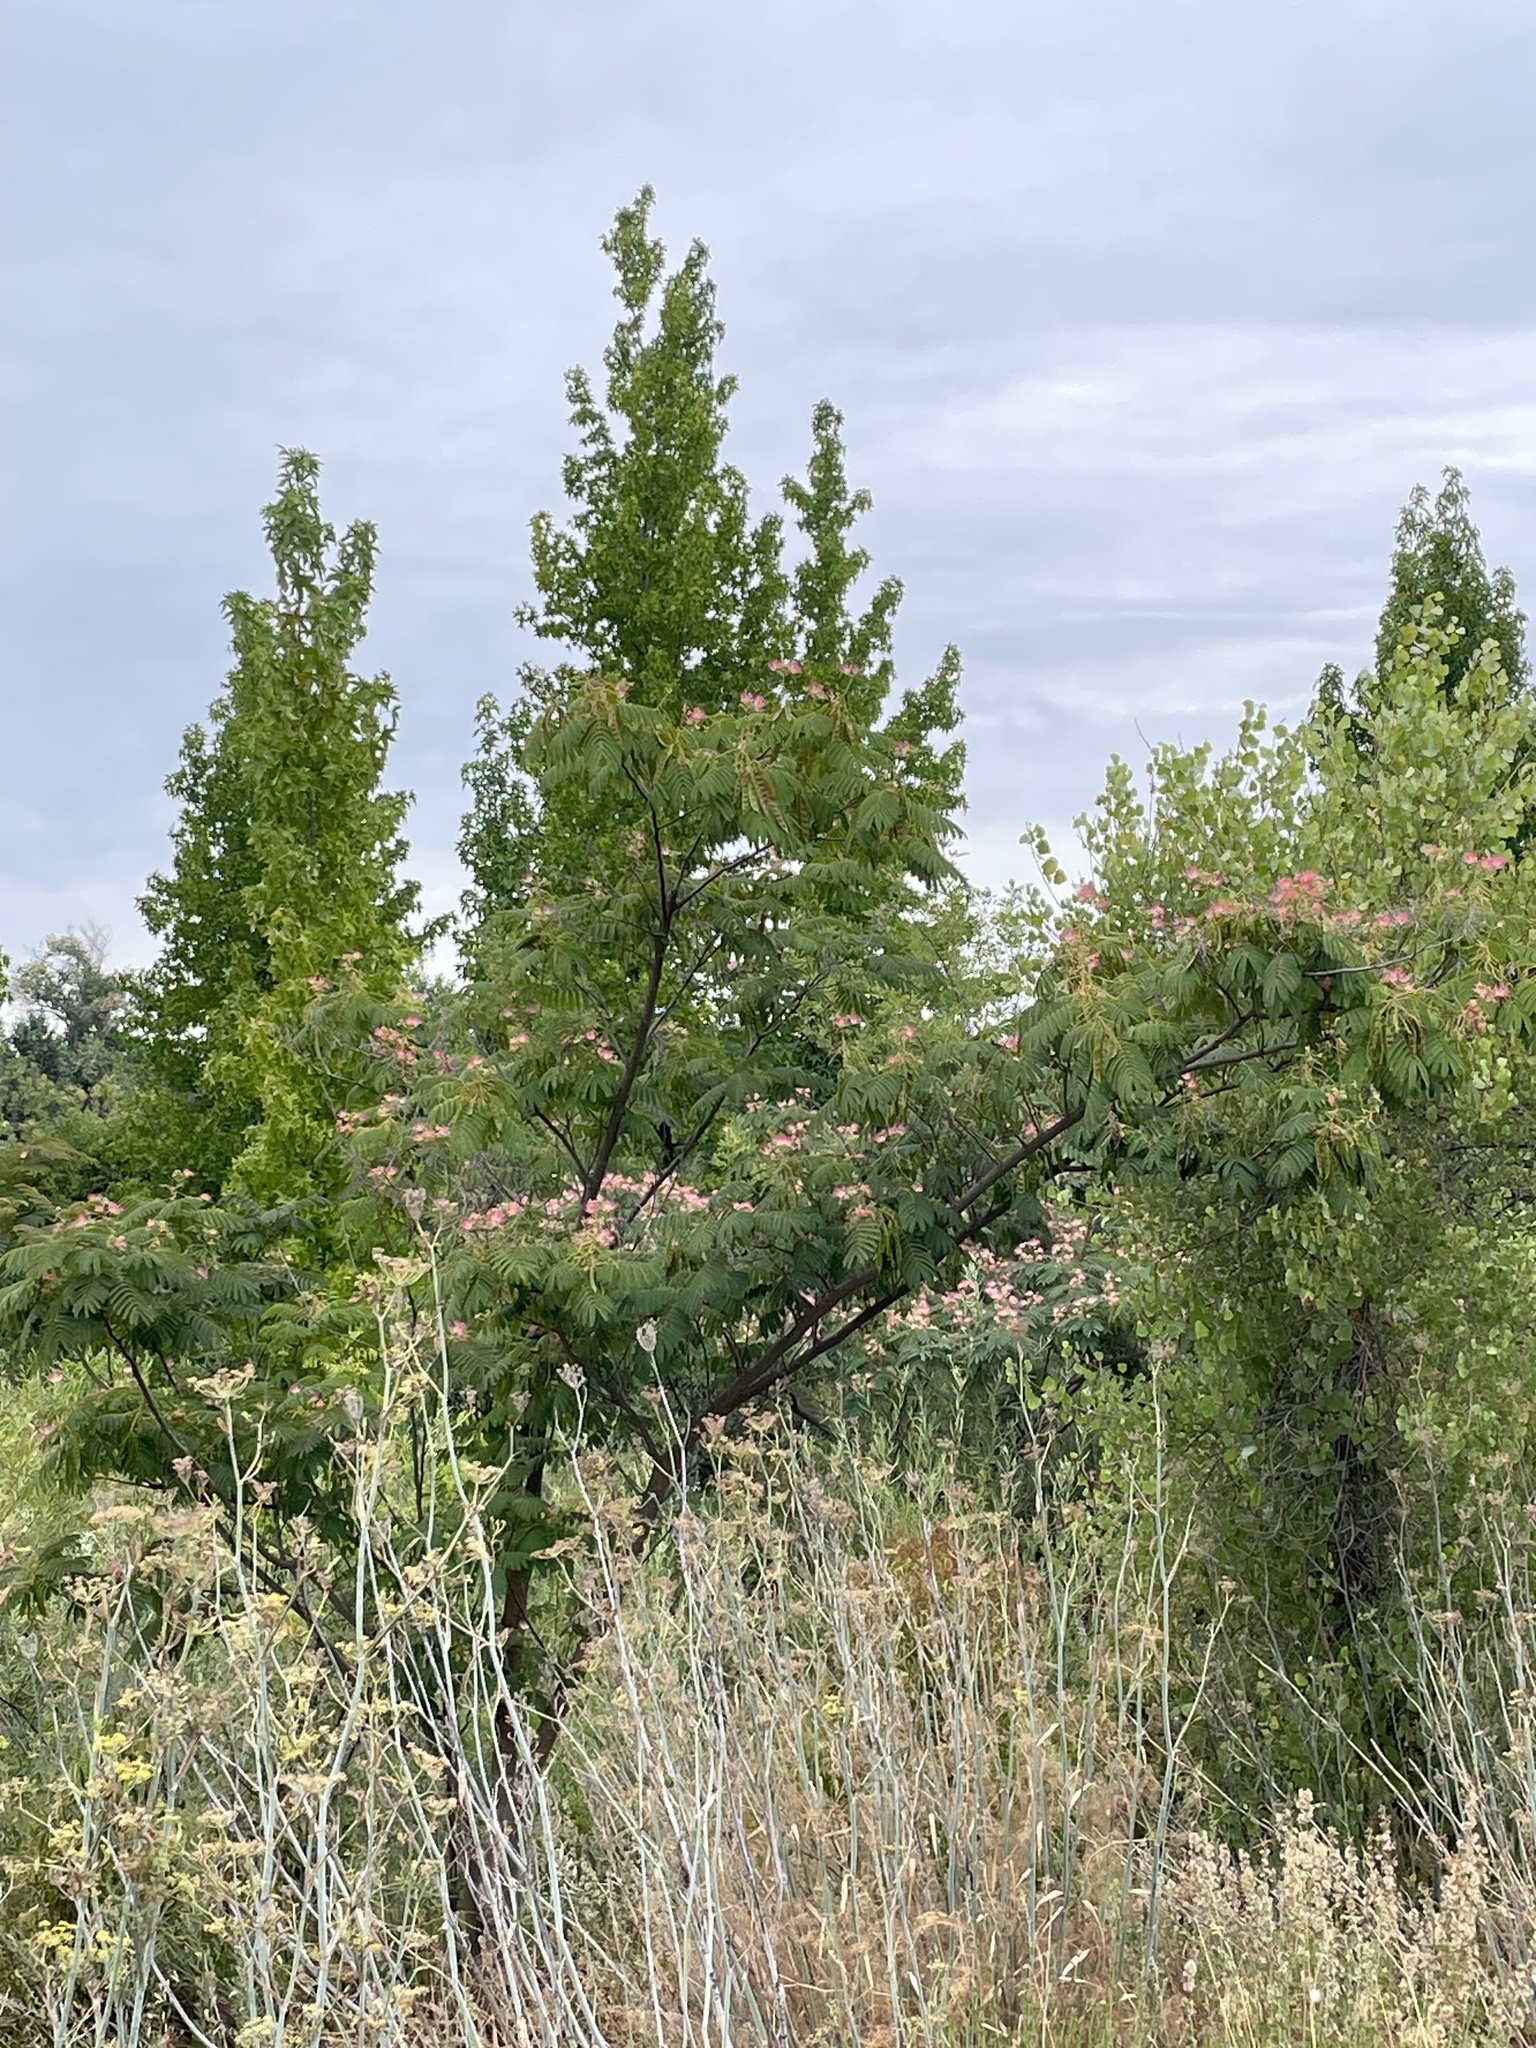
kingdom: Plantae
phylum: Tracheophyta
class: Magnoliopsida
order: Fabales
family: Fabaceae
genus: Albizia
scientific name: Albizia julibrissin
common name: Silktree
